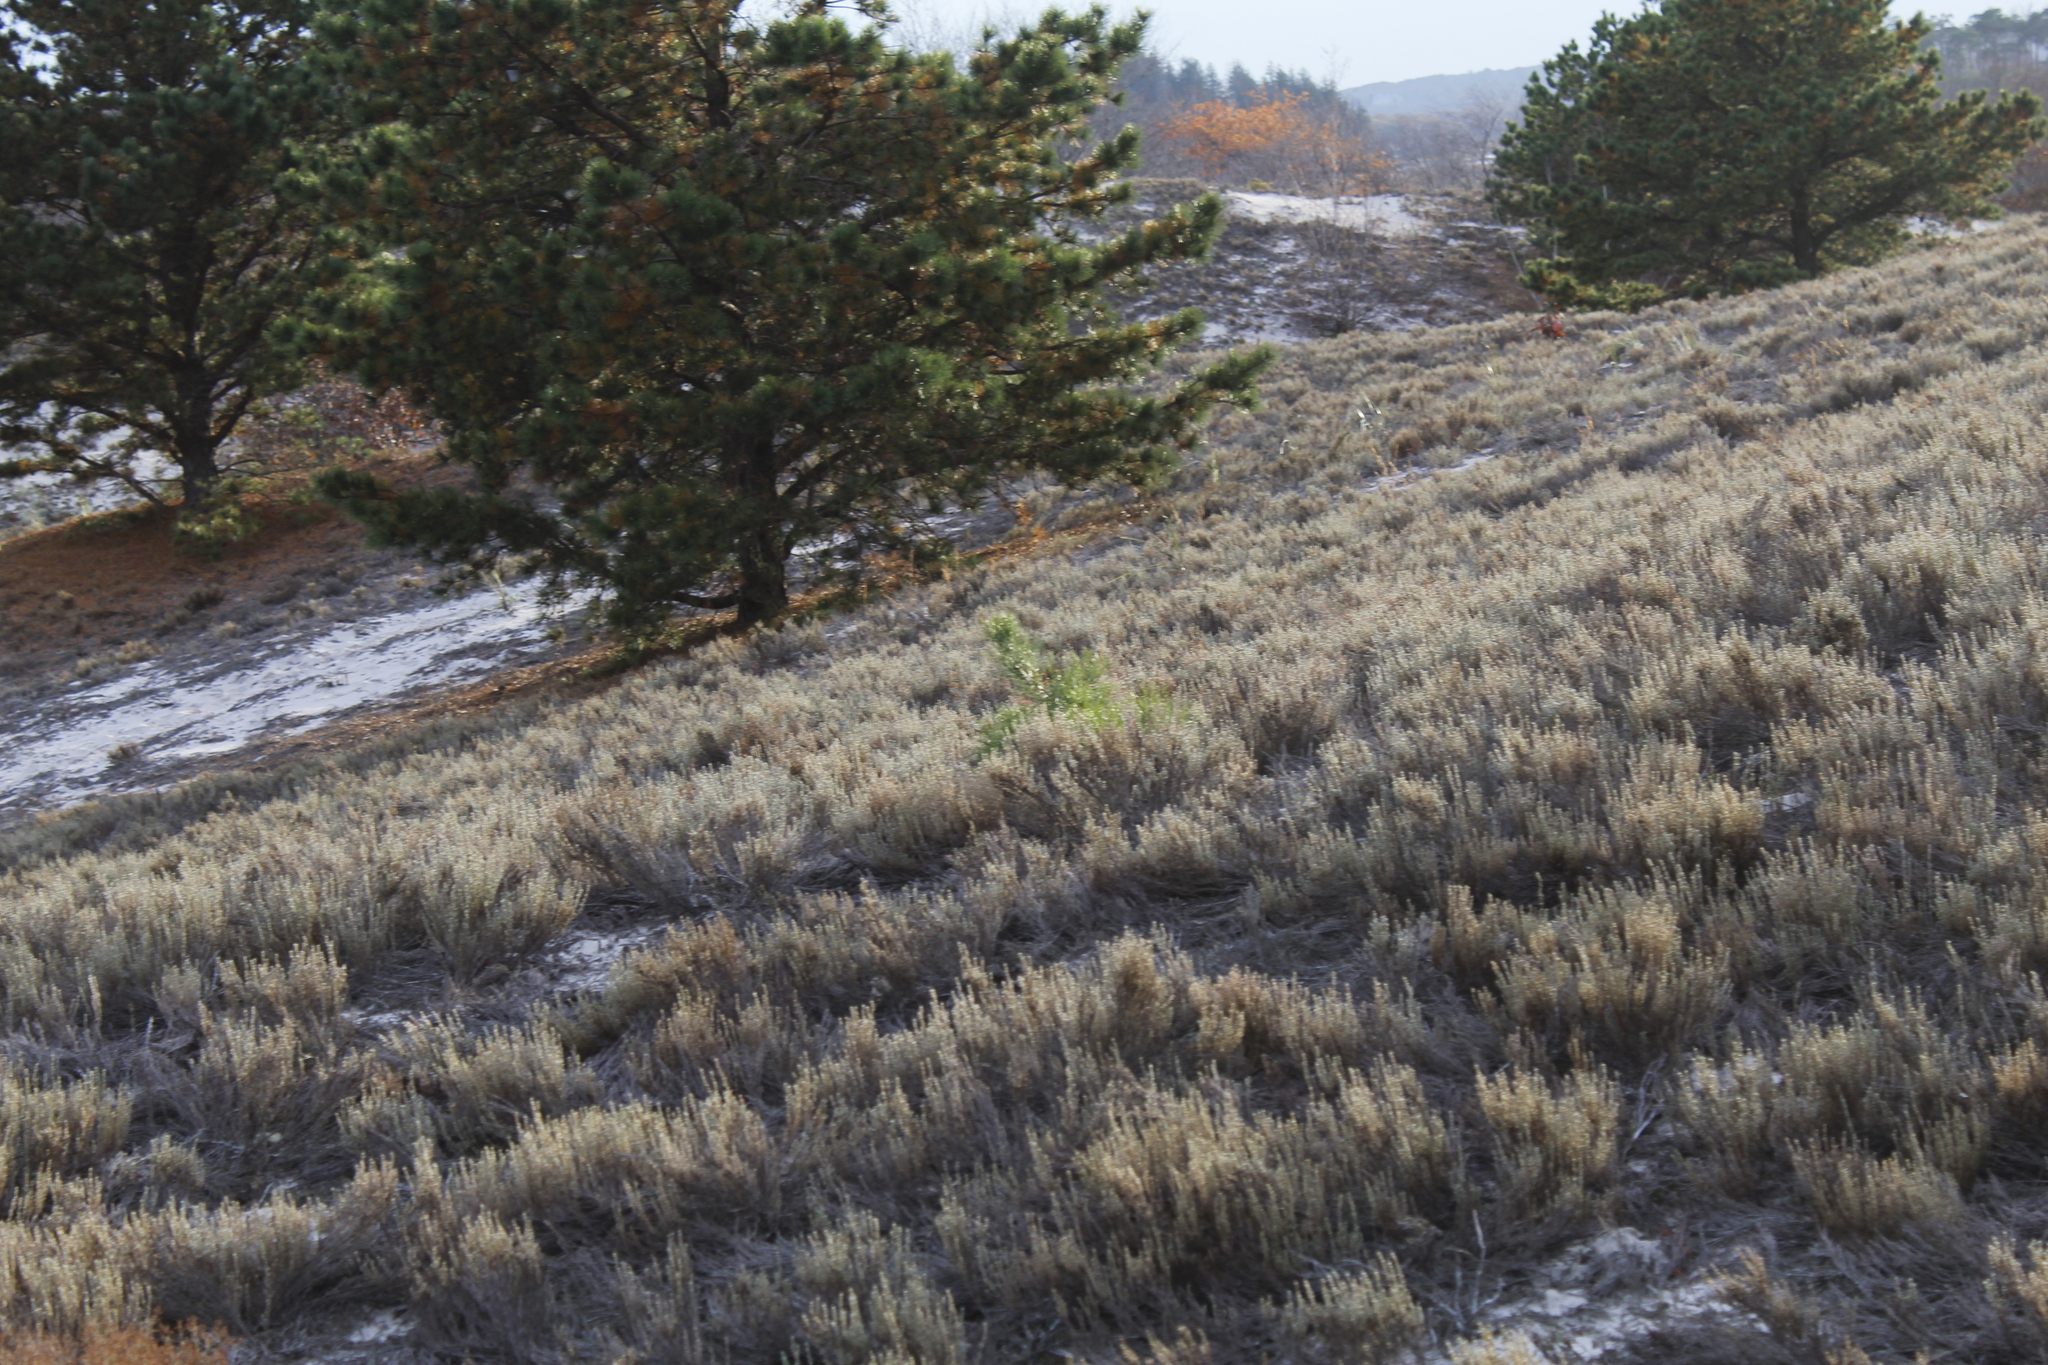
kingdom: Plantae
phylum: Tracheophyta
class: Magnoliopsida
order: Malvales
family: Cistaceae
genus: Hudsonia
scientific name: Hudsonia tomentosa
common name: Beach-heath
